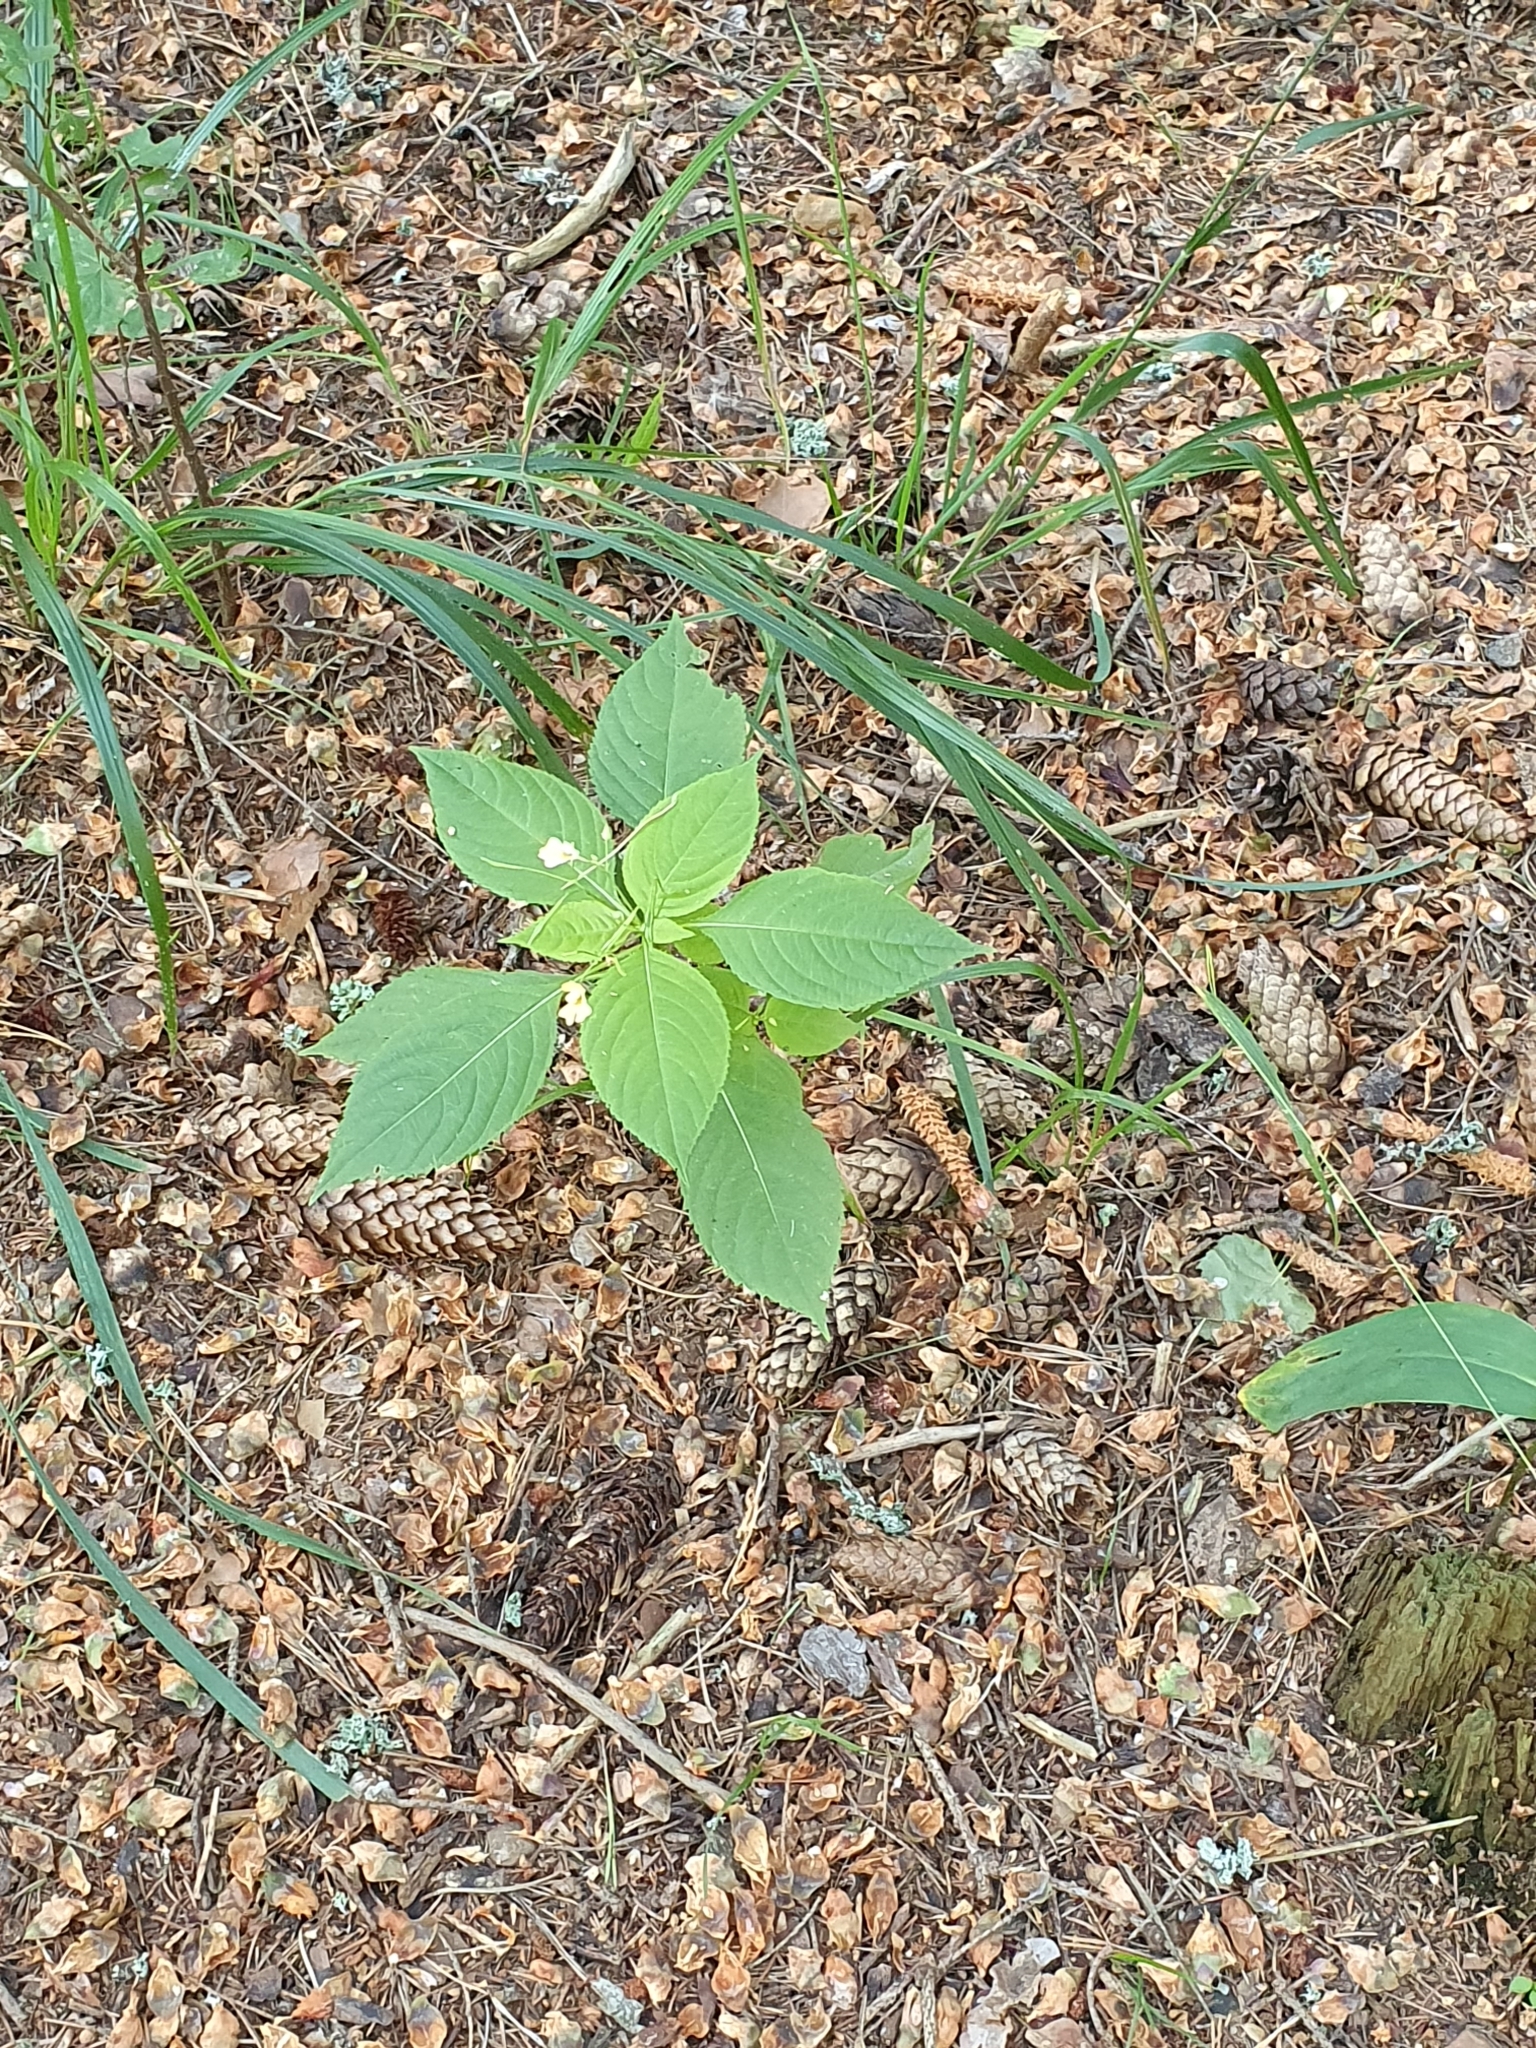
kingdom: Plantae
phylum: Tracheophyta
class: Magnoliopsida
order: Ericales
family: Balsaminaceae
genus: Impatiens
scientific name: Impatiens parviflora
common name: Small balsam
